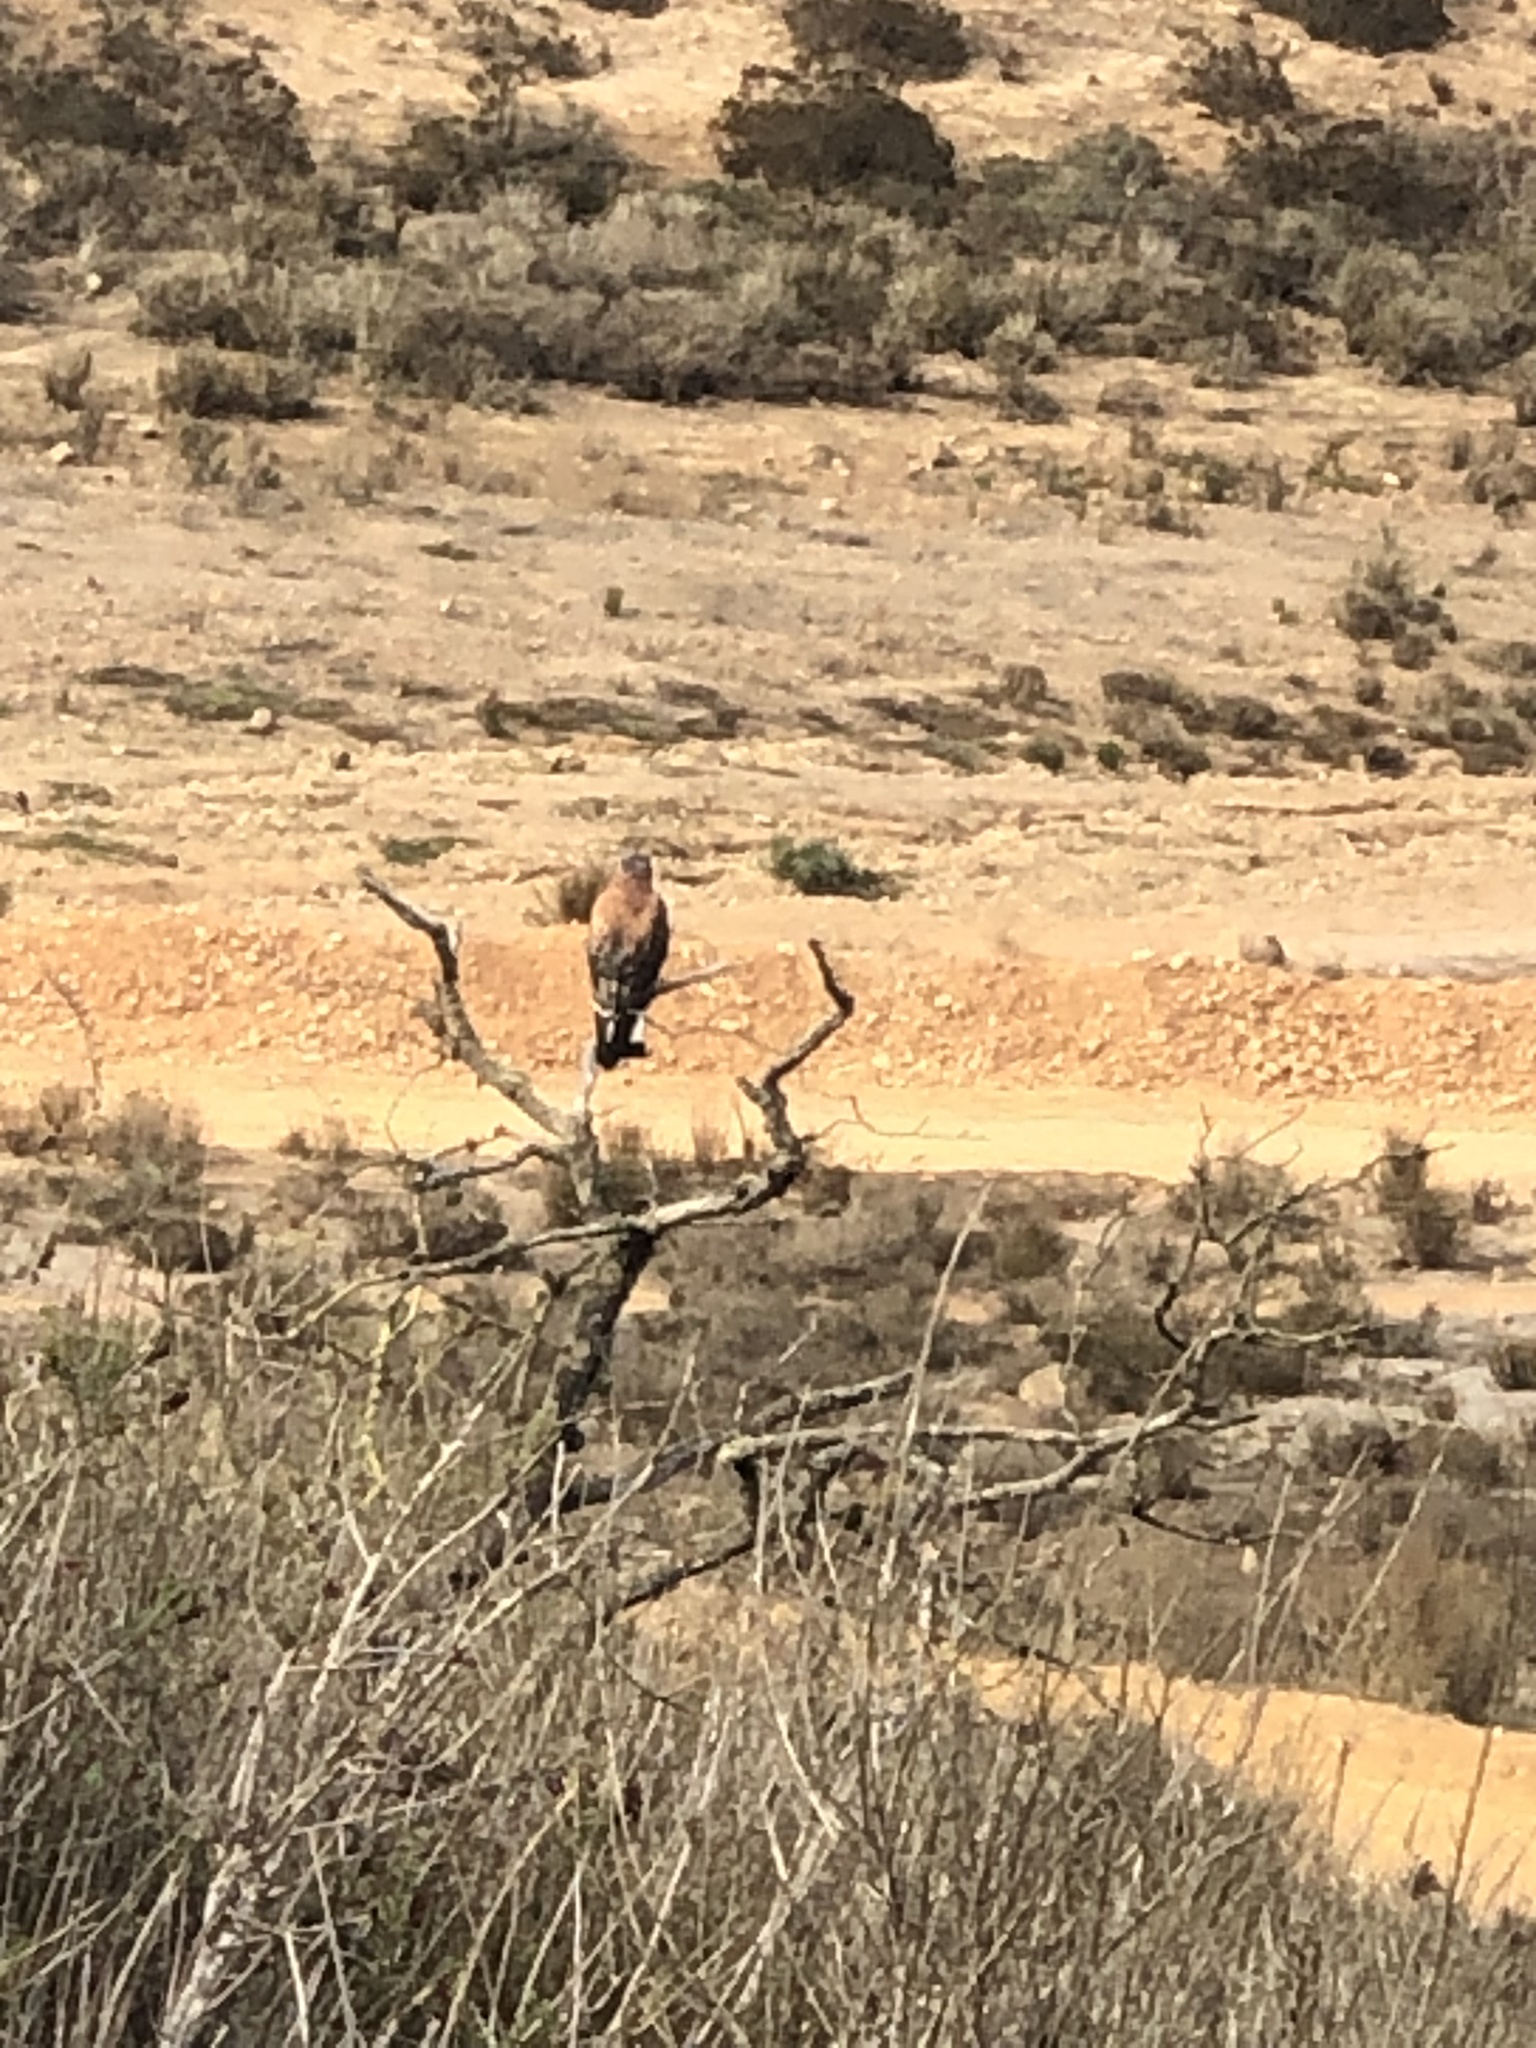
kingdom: Animalia
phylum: Chordata
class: Aves
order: Accipitriformes
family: Accipitridae
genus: Buteo
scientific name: Buteo polyosoma
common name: Variable hawk
